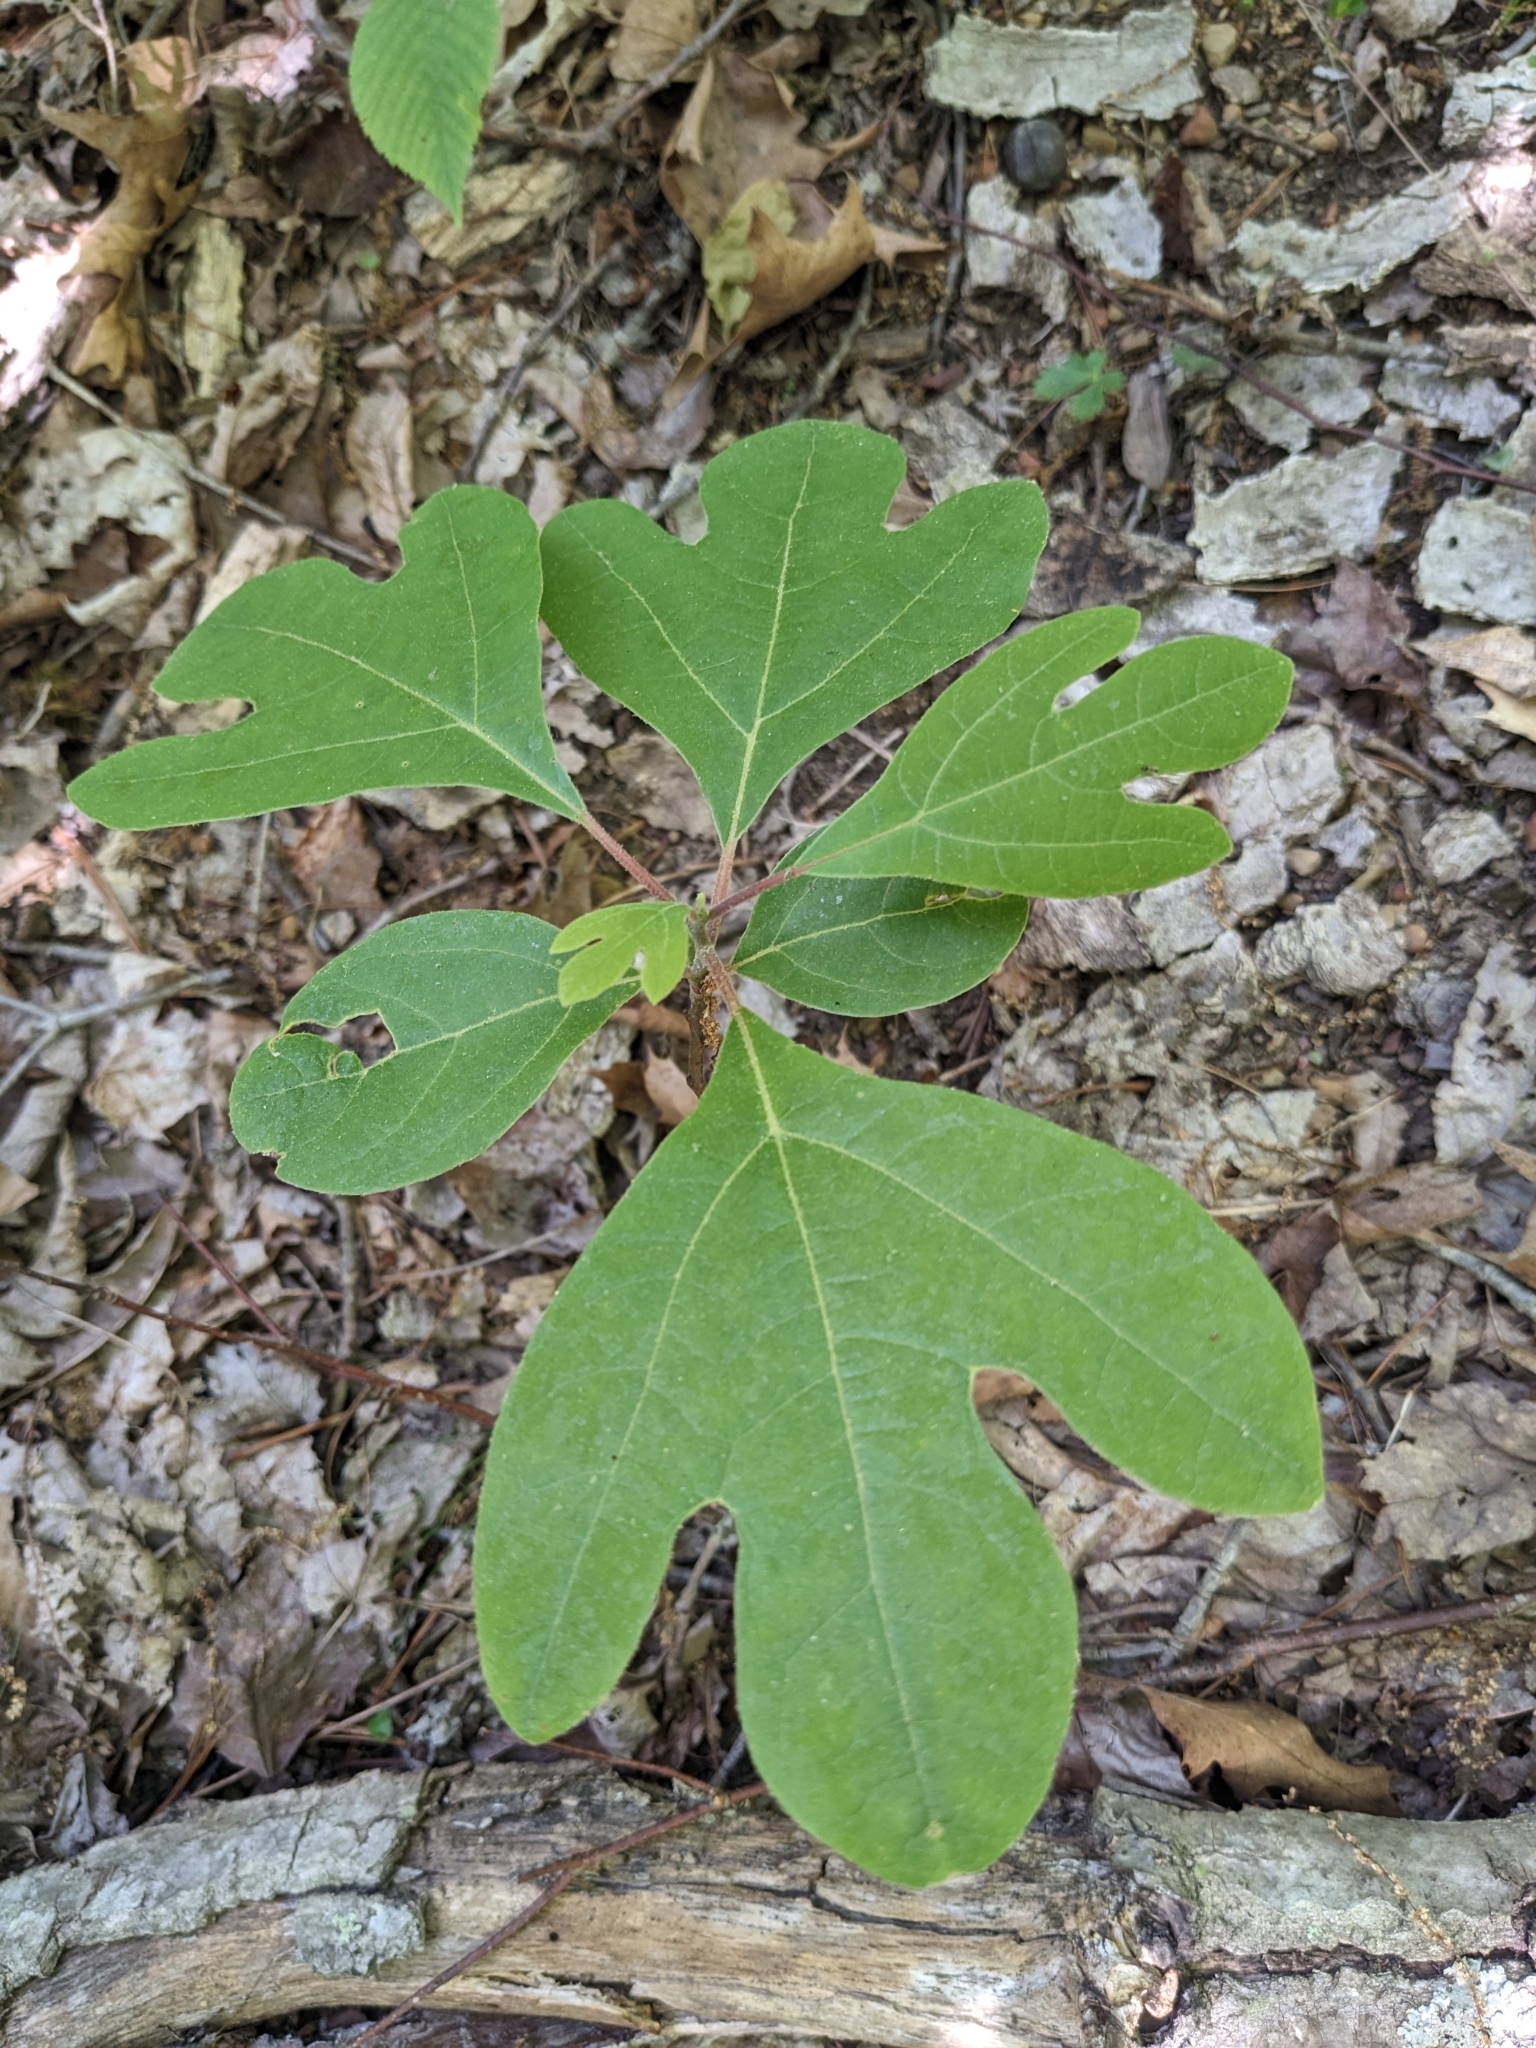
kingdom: Plantae
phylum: Tracheophyta
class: Magnoliopsida
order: Laurales
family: Lauraceae
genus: Sassafras
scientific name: Sassafras albidum
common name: Sassafras
